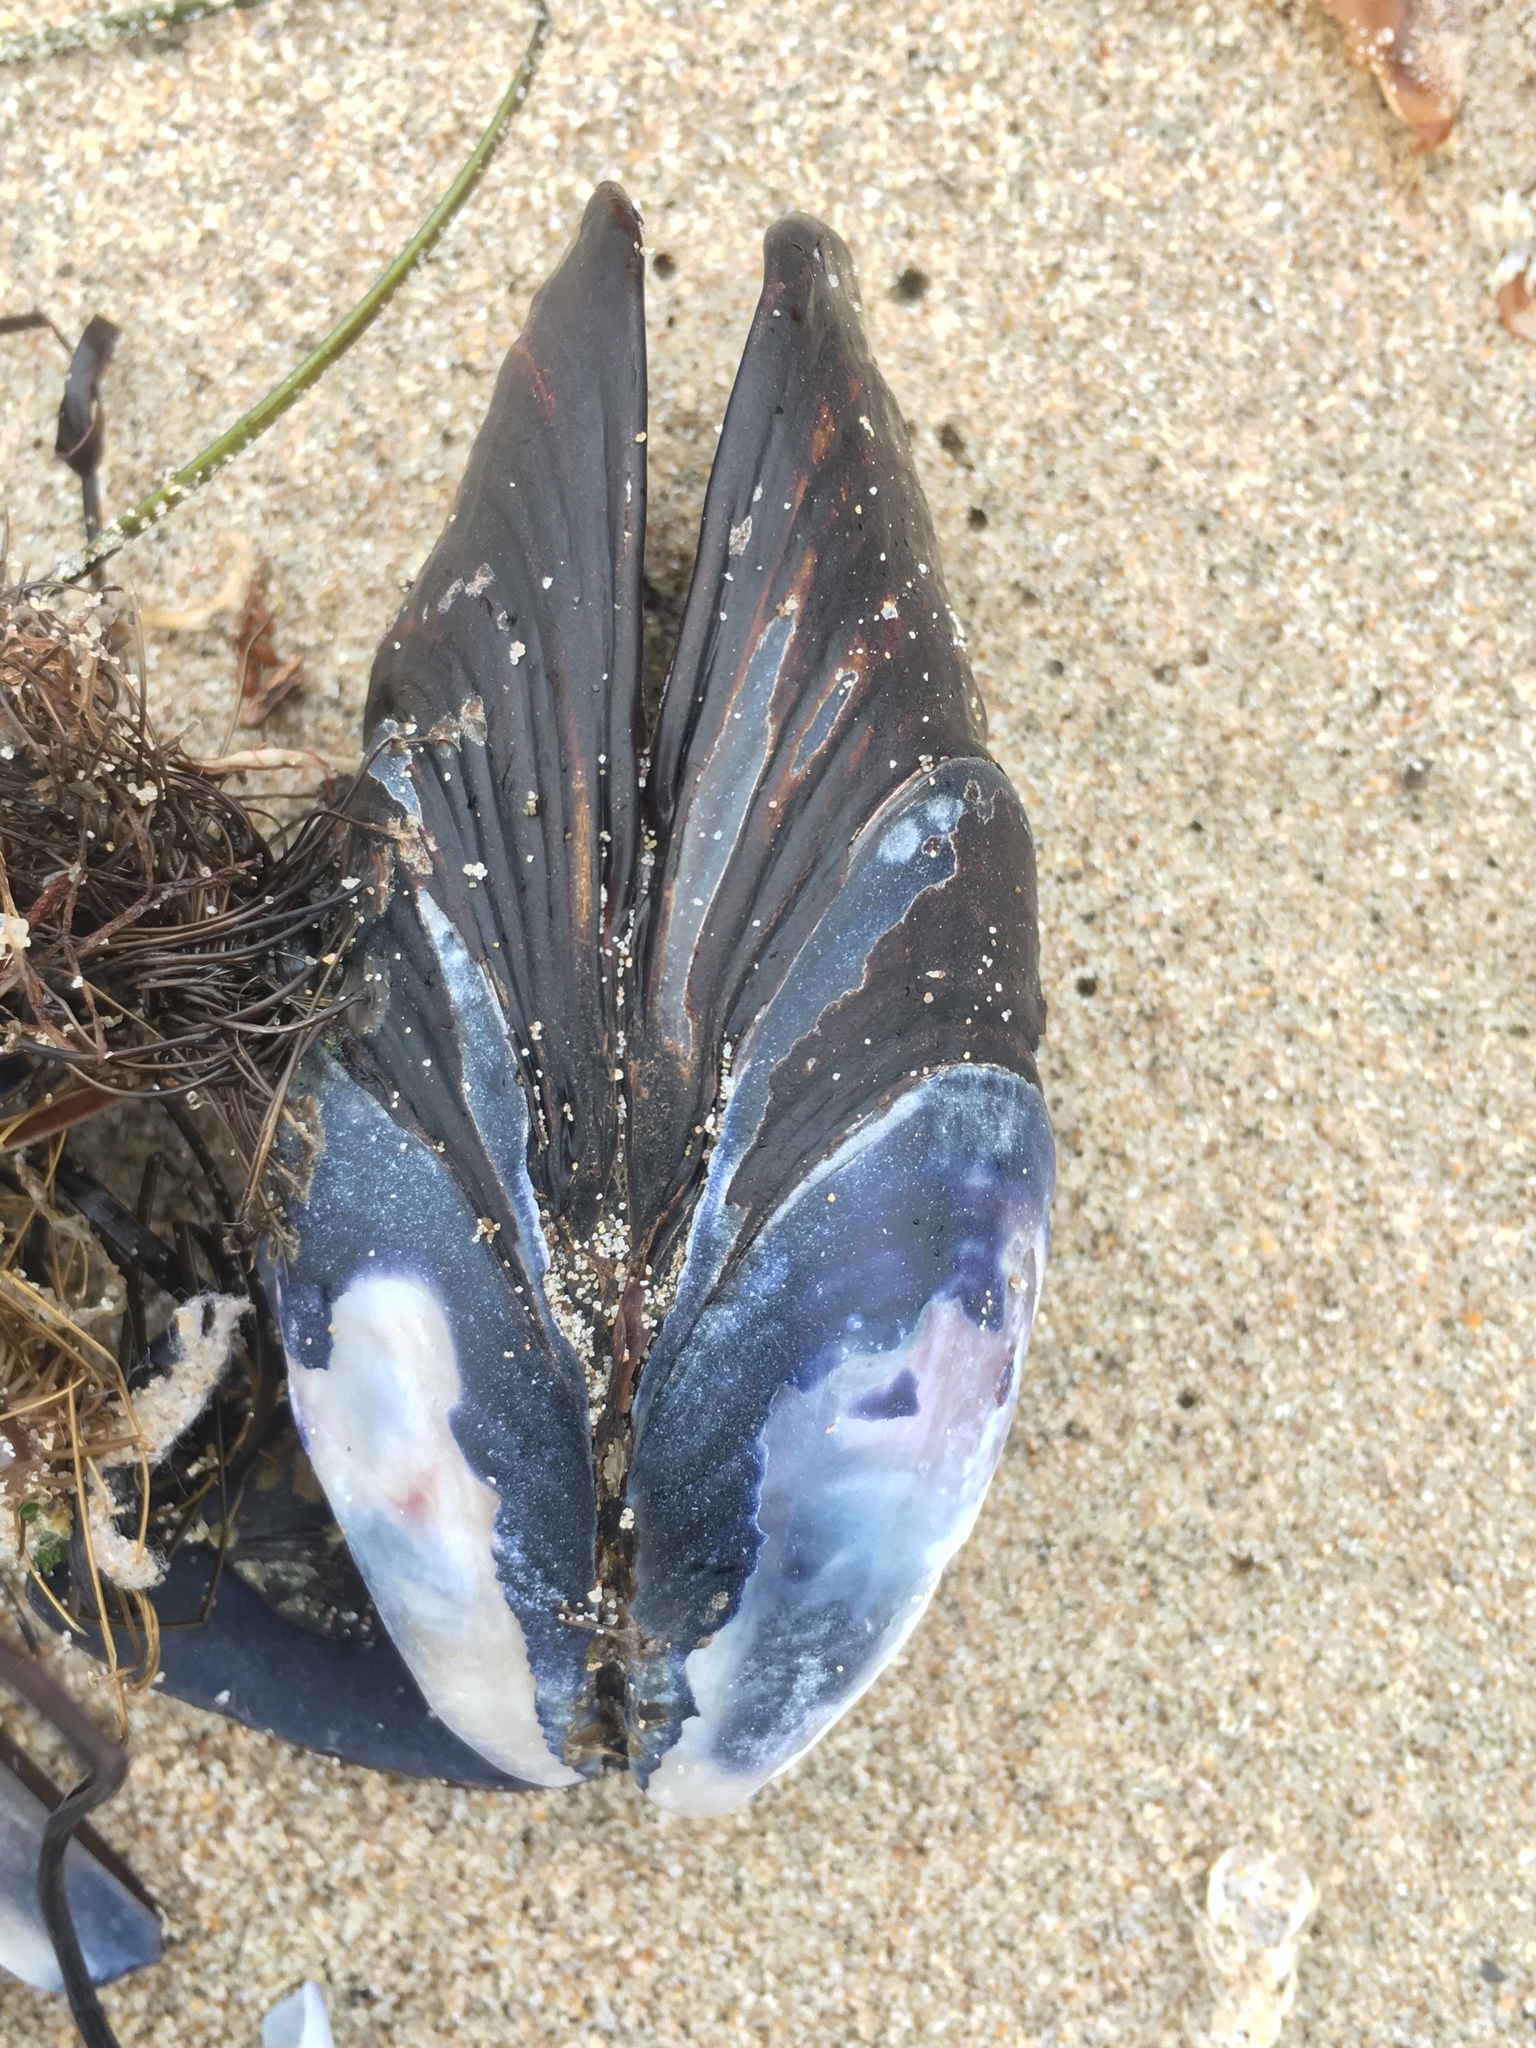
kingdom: Animalia
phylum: Mollusca
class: Bivalvia
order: Mytilida
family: Mytilidae
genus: Mytilus
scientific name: Mytilus californianus
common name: California mussel
